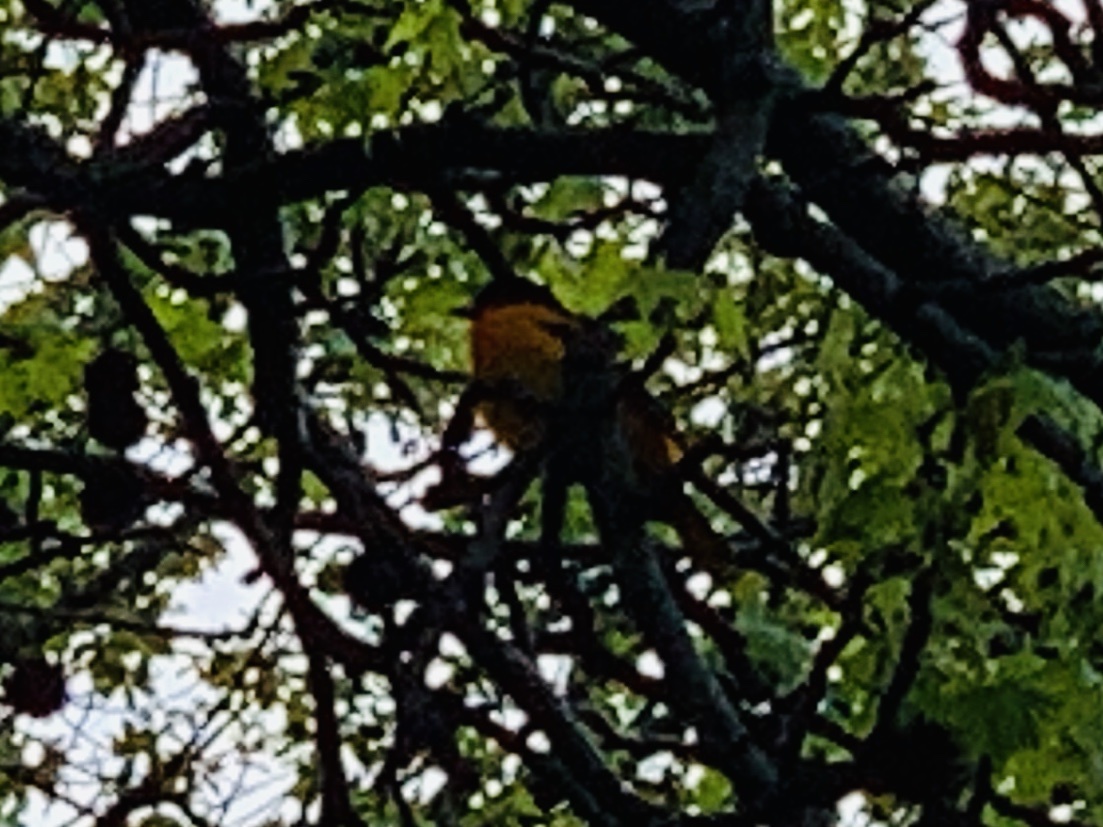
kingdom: Animalia
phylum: Chordata
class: Aves
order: Passeriformes
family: Icteridae
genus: Icterus
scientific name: Icterus galbula
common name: Baltimore oriole
